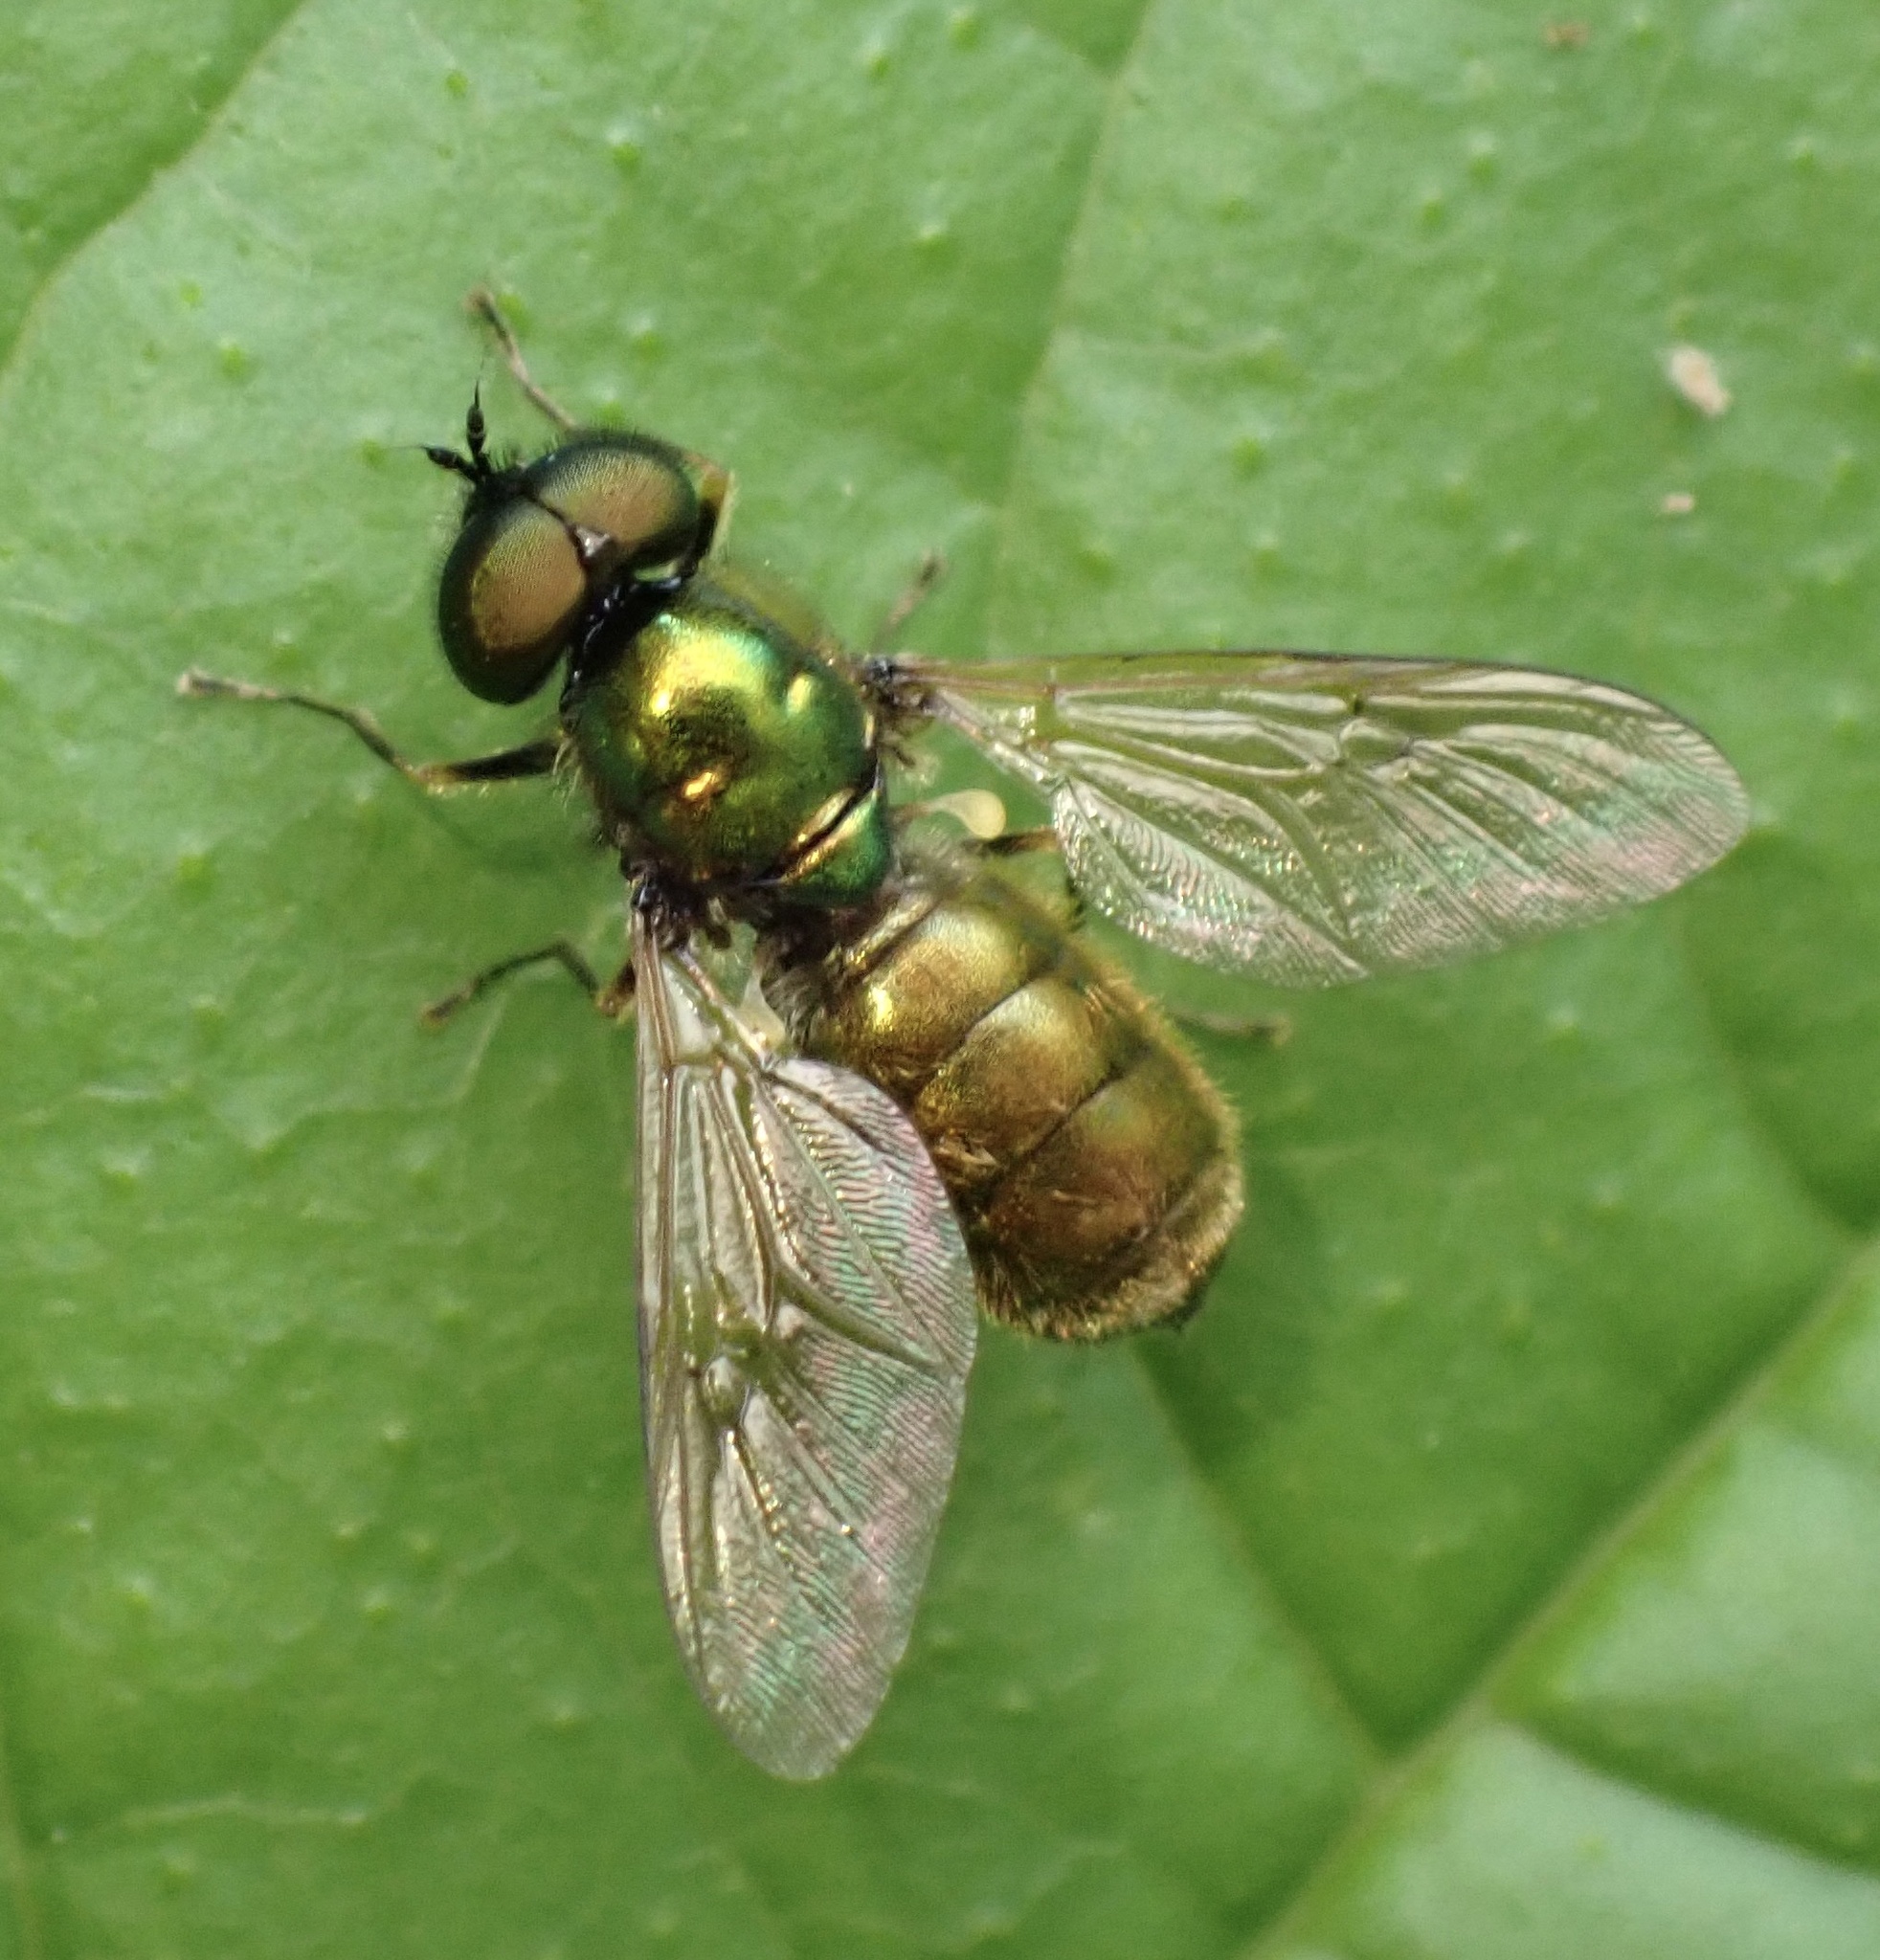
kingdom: Animalia
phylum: Arthropoda
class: Insecta
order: Diptera
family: Stratiomyidae
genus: Chloromyia
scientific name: Chloromyia formosa
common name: Soldier fly
